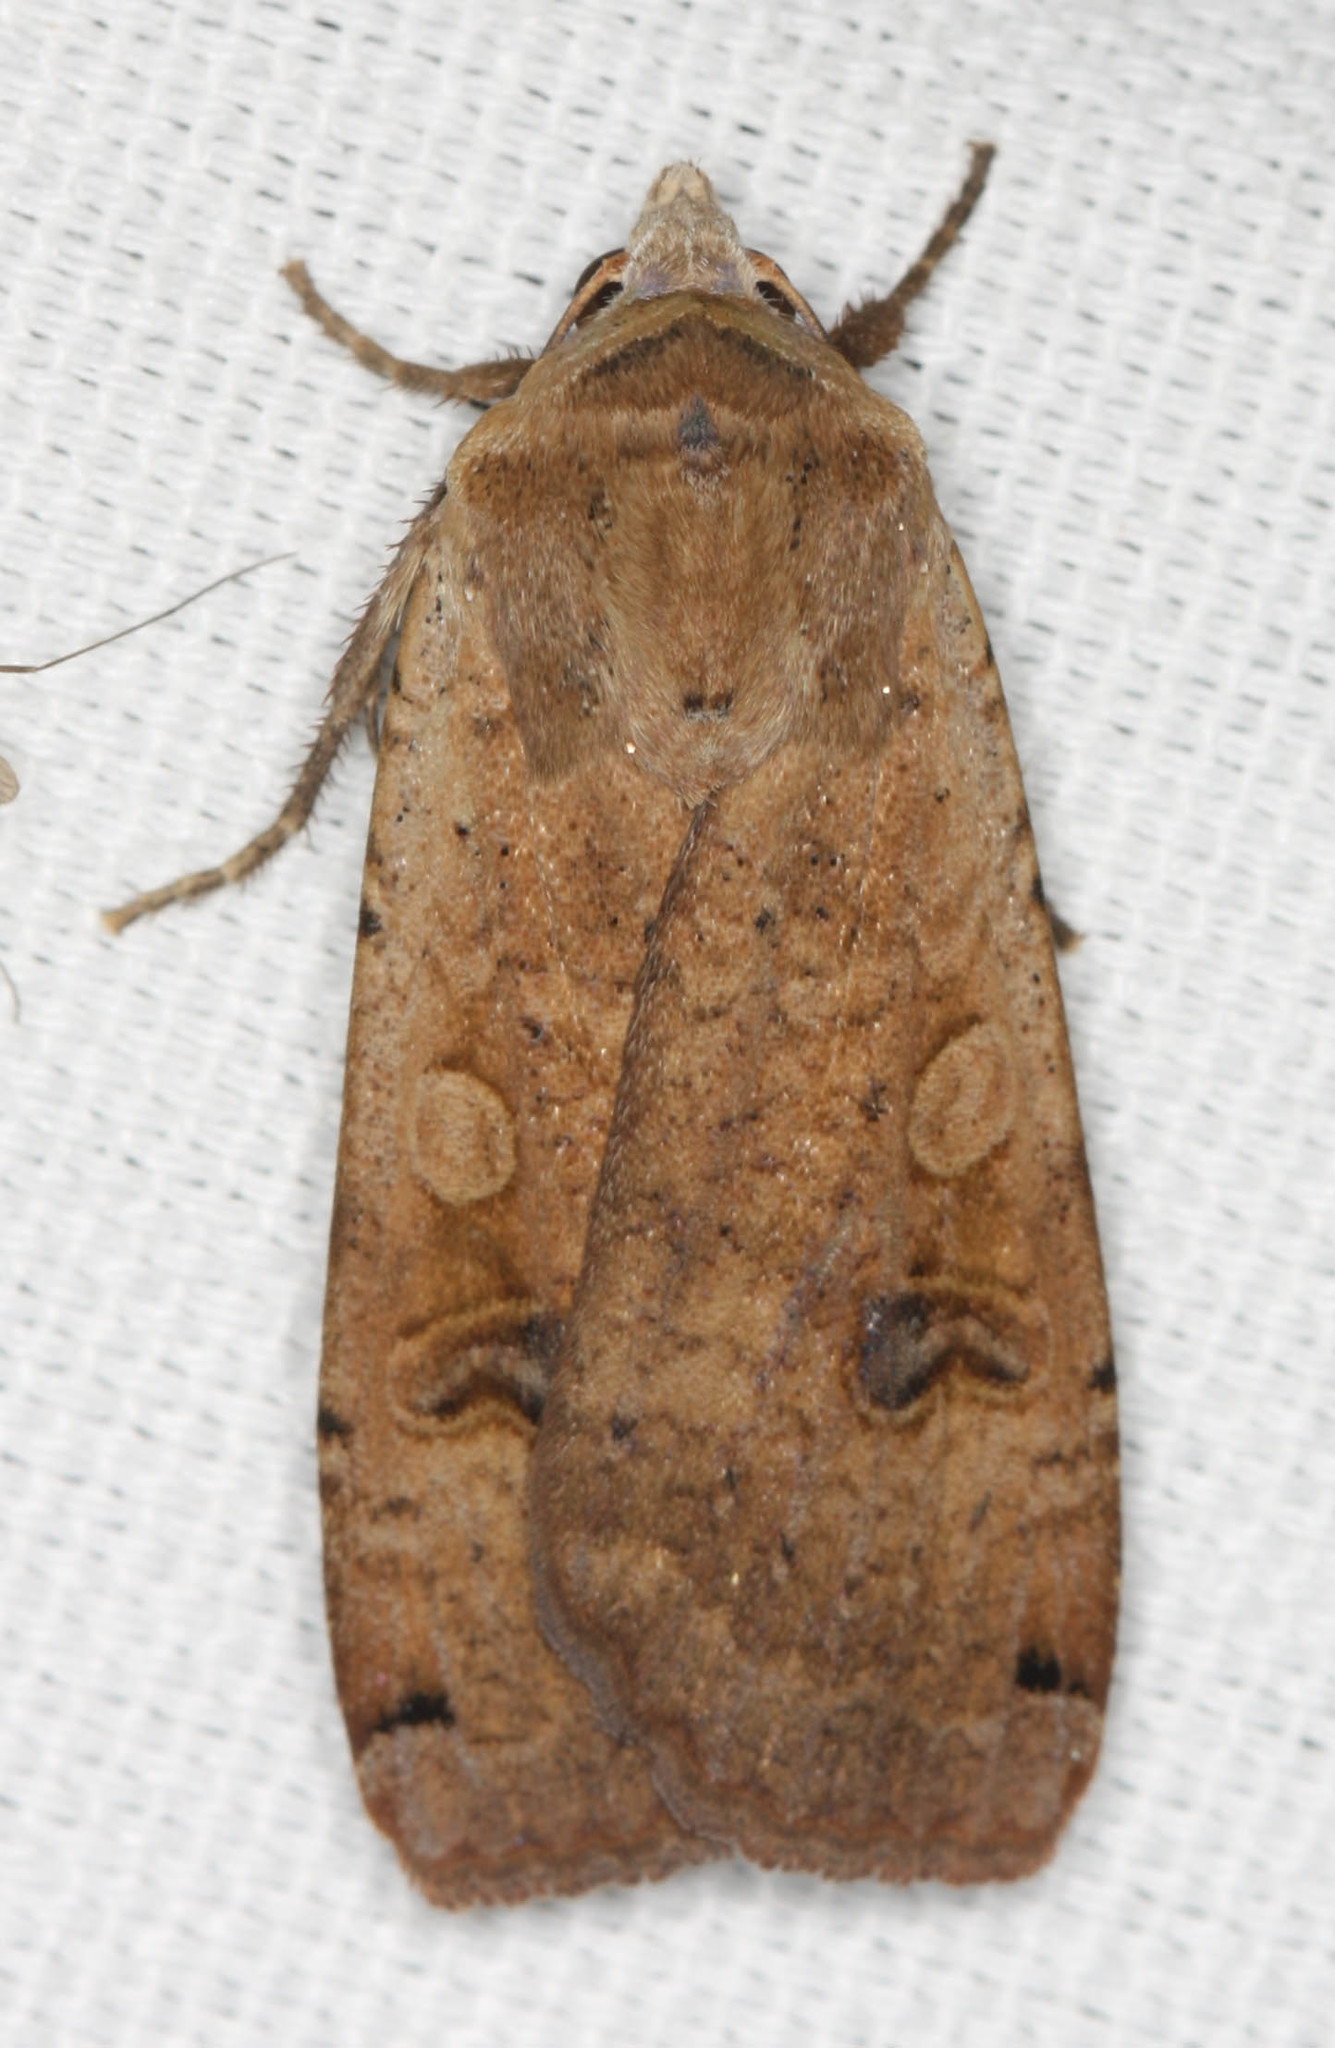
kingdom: Animalia
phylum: Arthropoda
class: Insecta
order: Lepidoptera
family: Noctuidae
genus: Noctua
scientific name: Noctua pronuba
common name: Large yellow underwing
